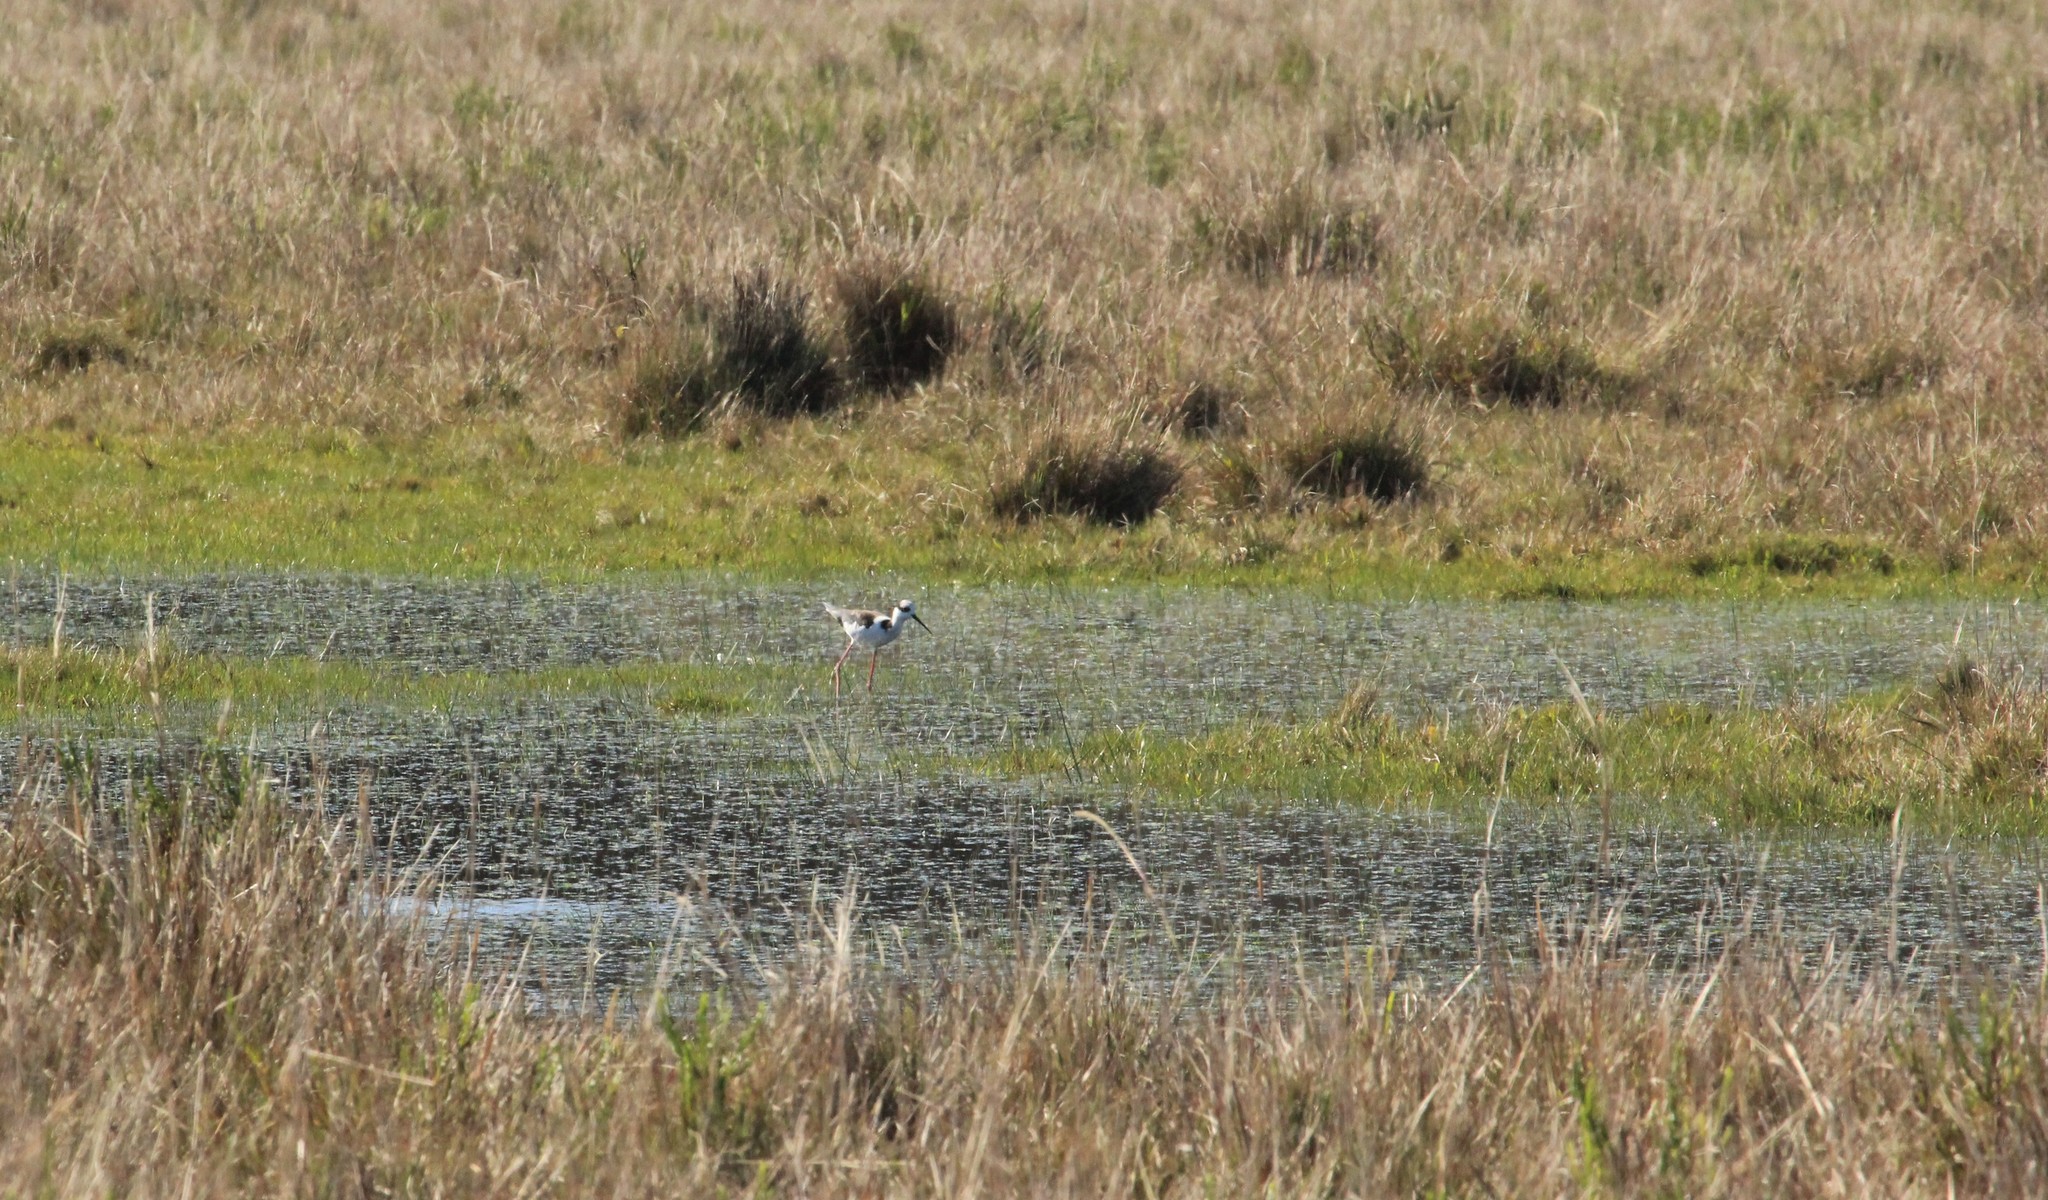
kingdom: Animalia
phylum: Chordata
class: Aves
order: Charadriiformes
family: Recurvirostridae
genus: Himantopus
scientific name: Himantopus mexicanus
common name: Black-necked stilt
